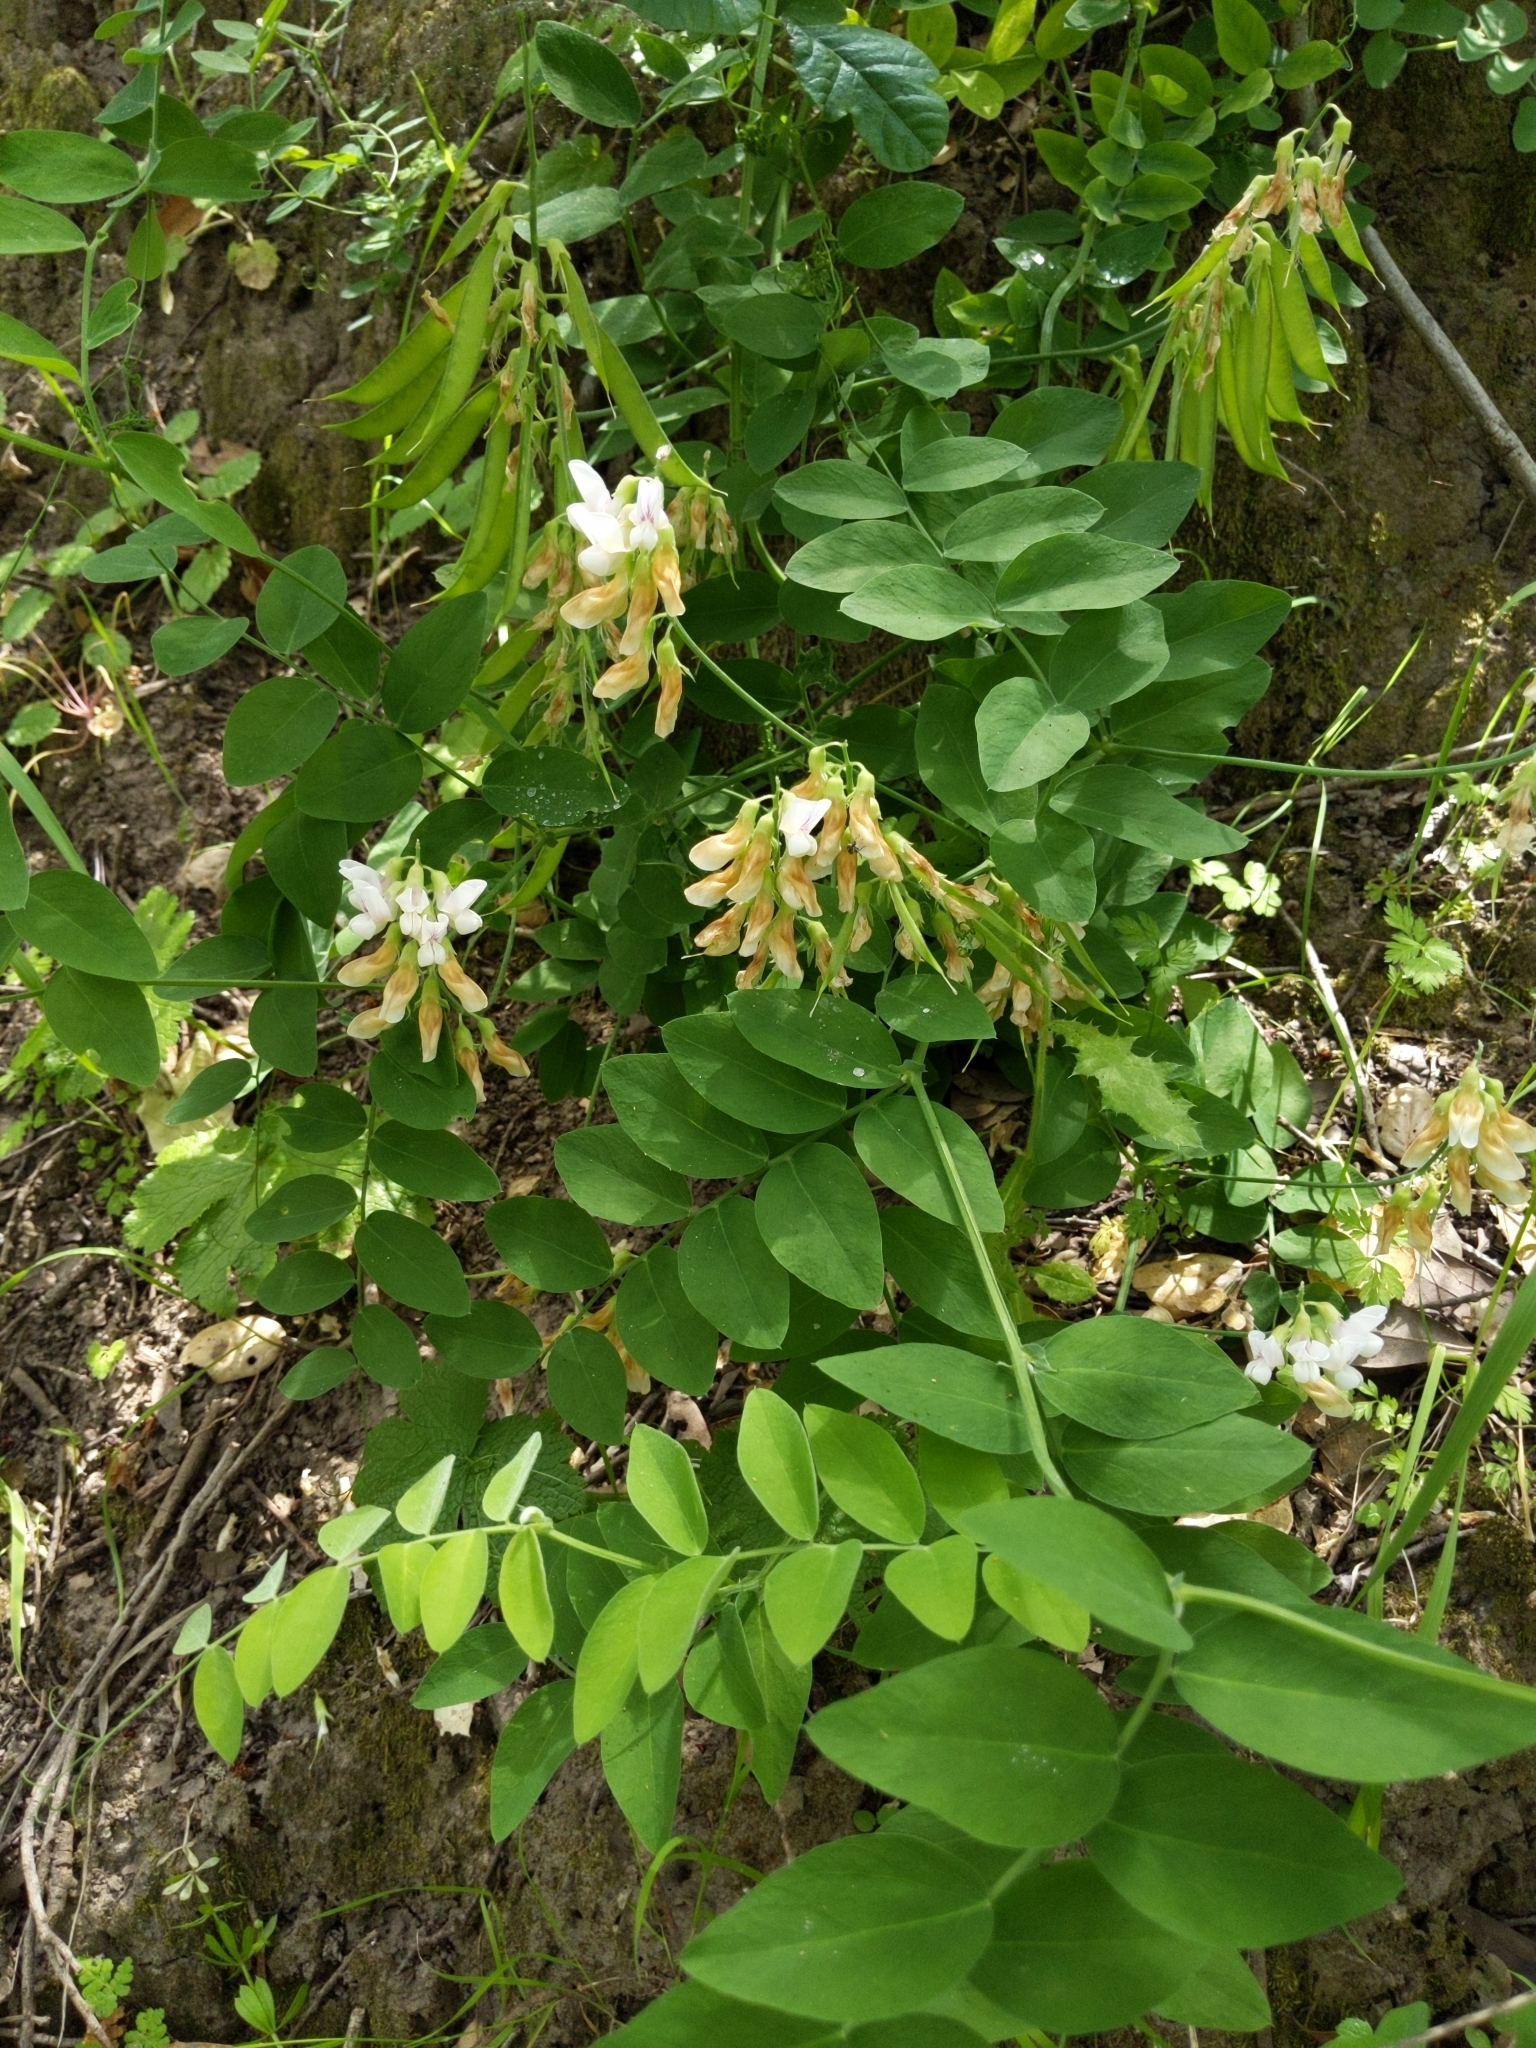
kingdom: Plantae
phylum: Tracheophyta
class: Magnoliopsida
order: Fabales
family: Fabaceae
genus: Lathyrus
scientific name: Lathyrus vestitus
